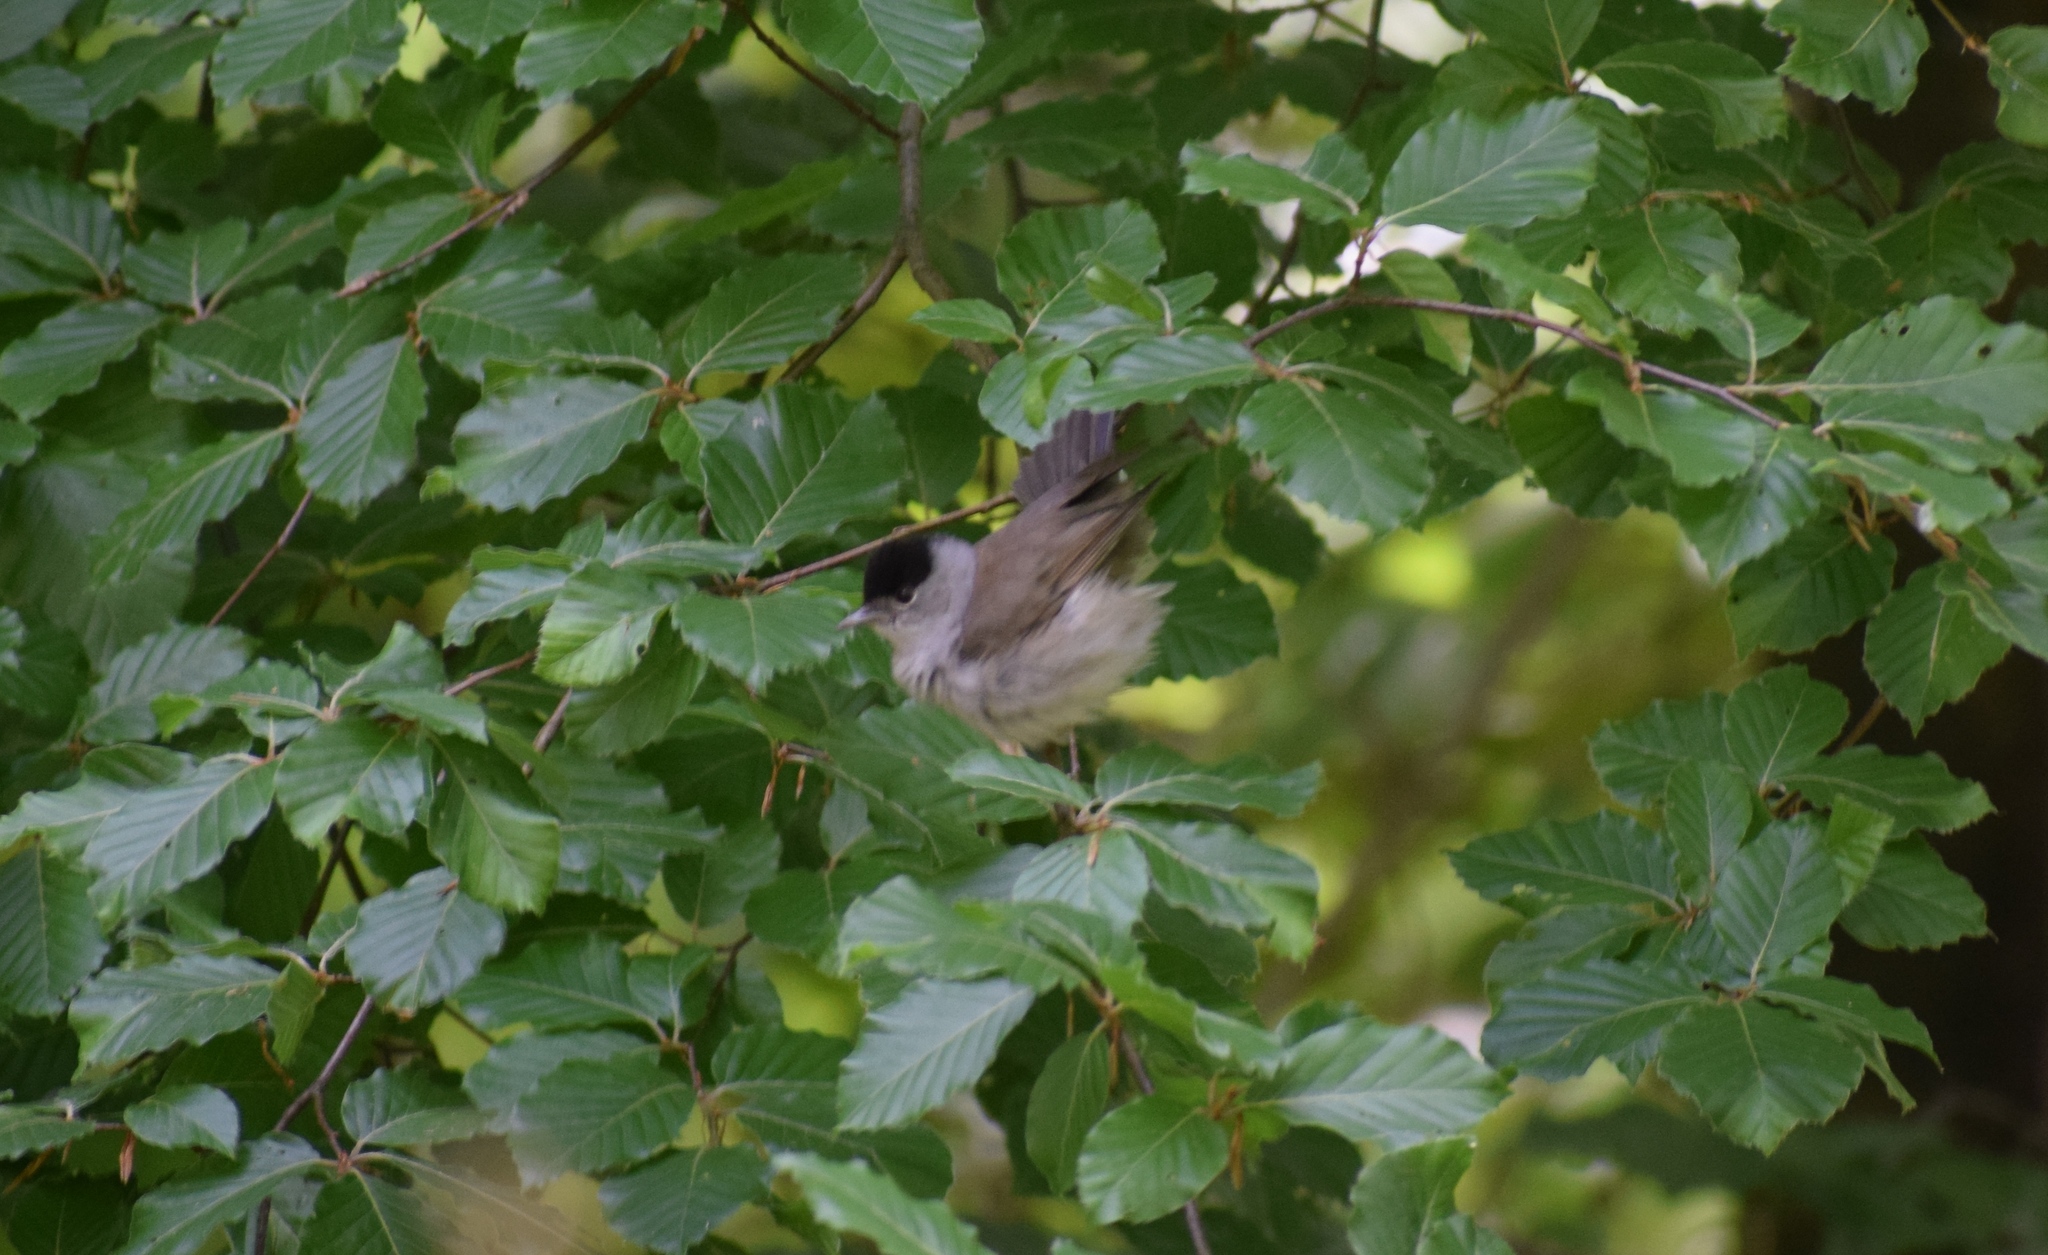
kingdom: Animalia
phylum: Chordata
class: Aves
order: Passeriformes
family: Sylviidae
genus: Sylvia
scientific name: Sylvia atricapilla
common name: Eurasian blackcap
